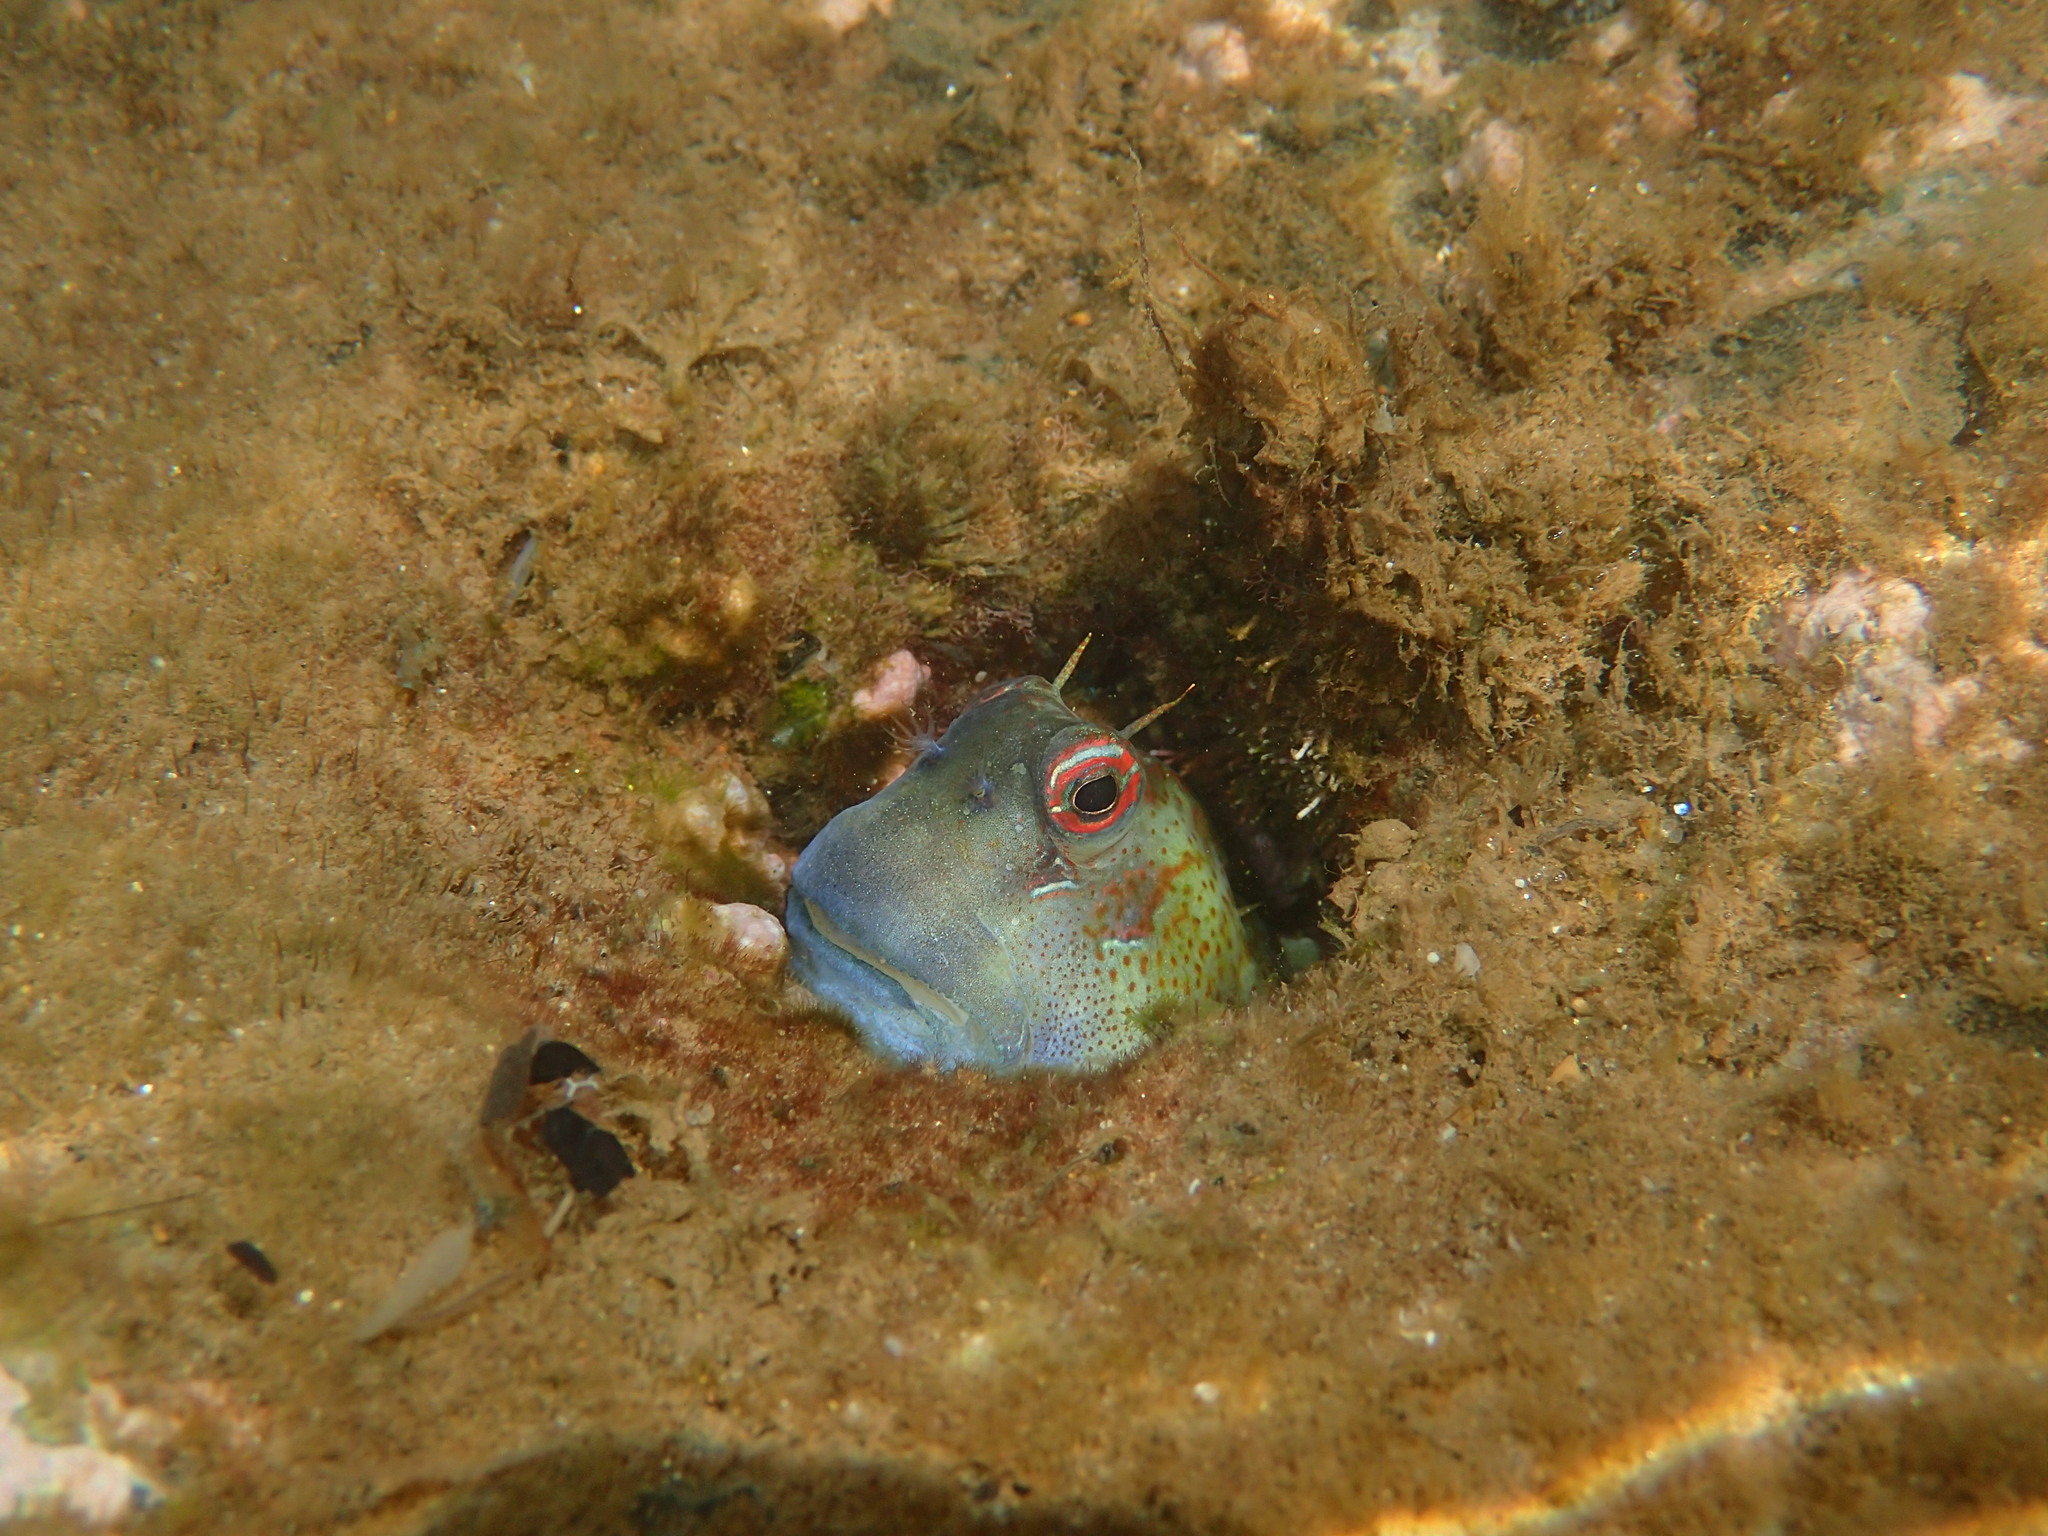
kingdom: Animalia
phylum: Chordata
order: Perciformes
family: Blenniidae
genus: Blenniella
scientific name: Blenniella periophthalmus
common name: Blue-dashed rockskipper
